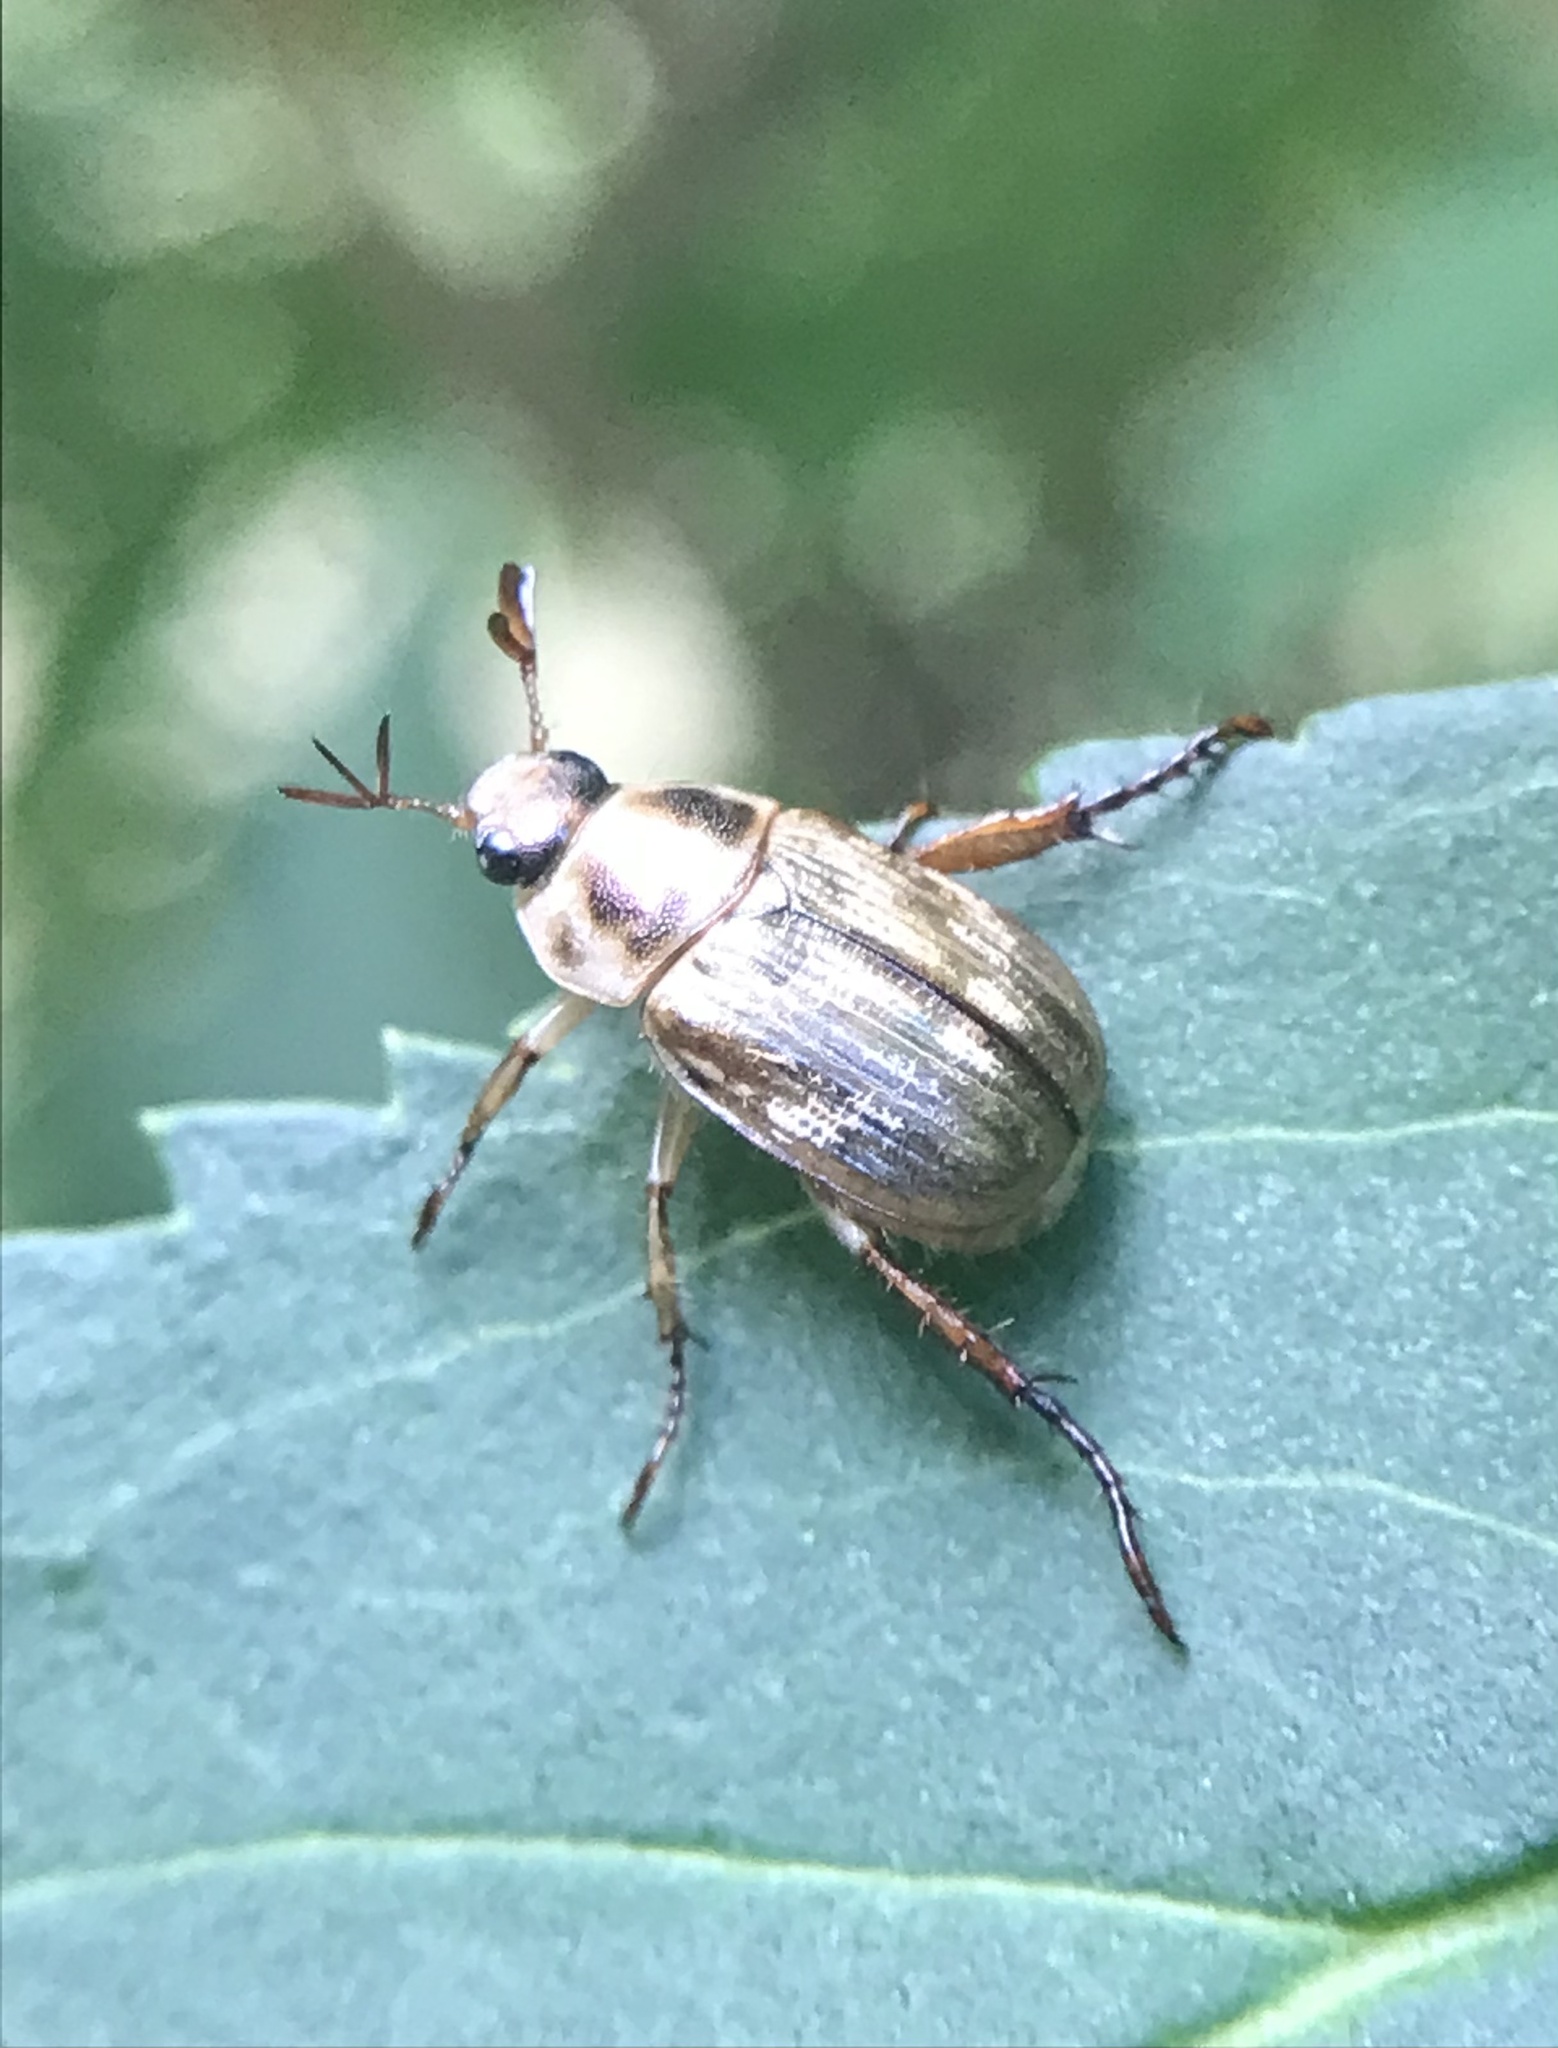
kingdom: Animalia
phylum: Arthropoda
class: Insecta
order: Coleoptera
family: Scarabaeidae
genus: Exomala
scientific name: Exomala orientalis
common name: Oriental beetle
